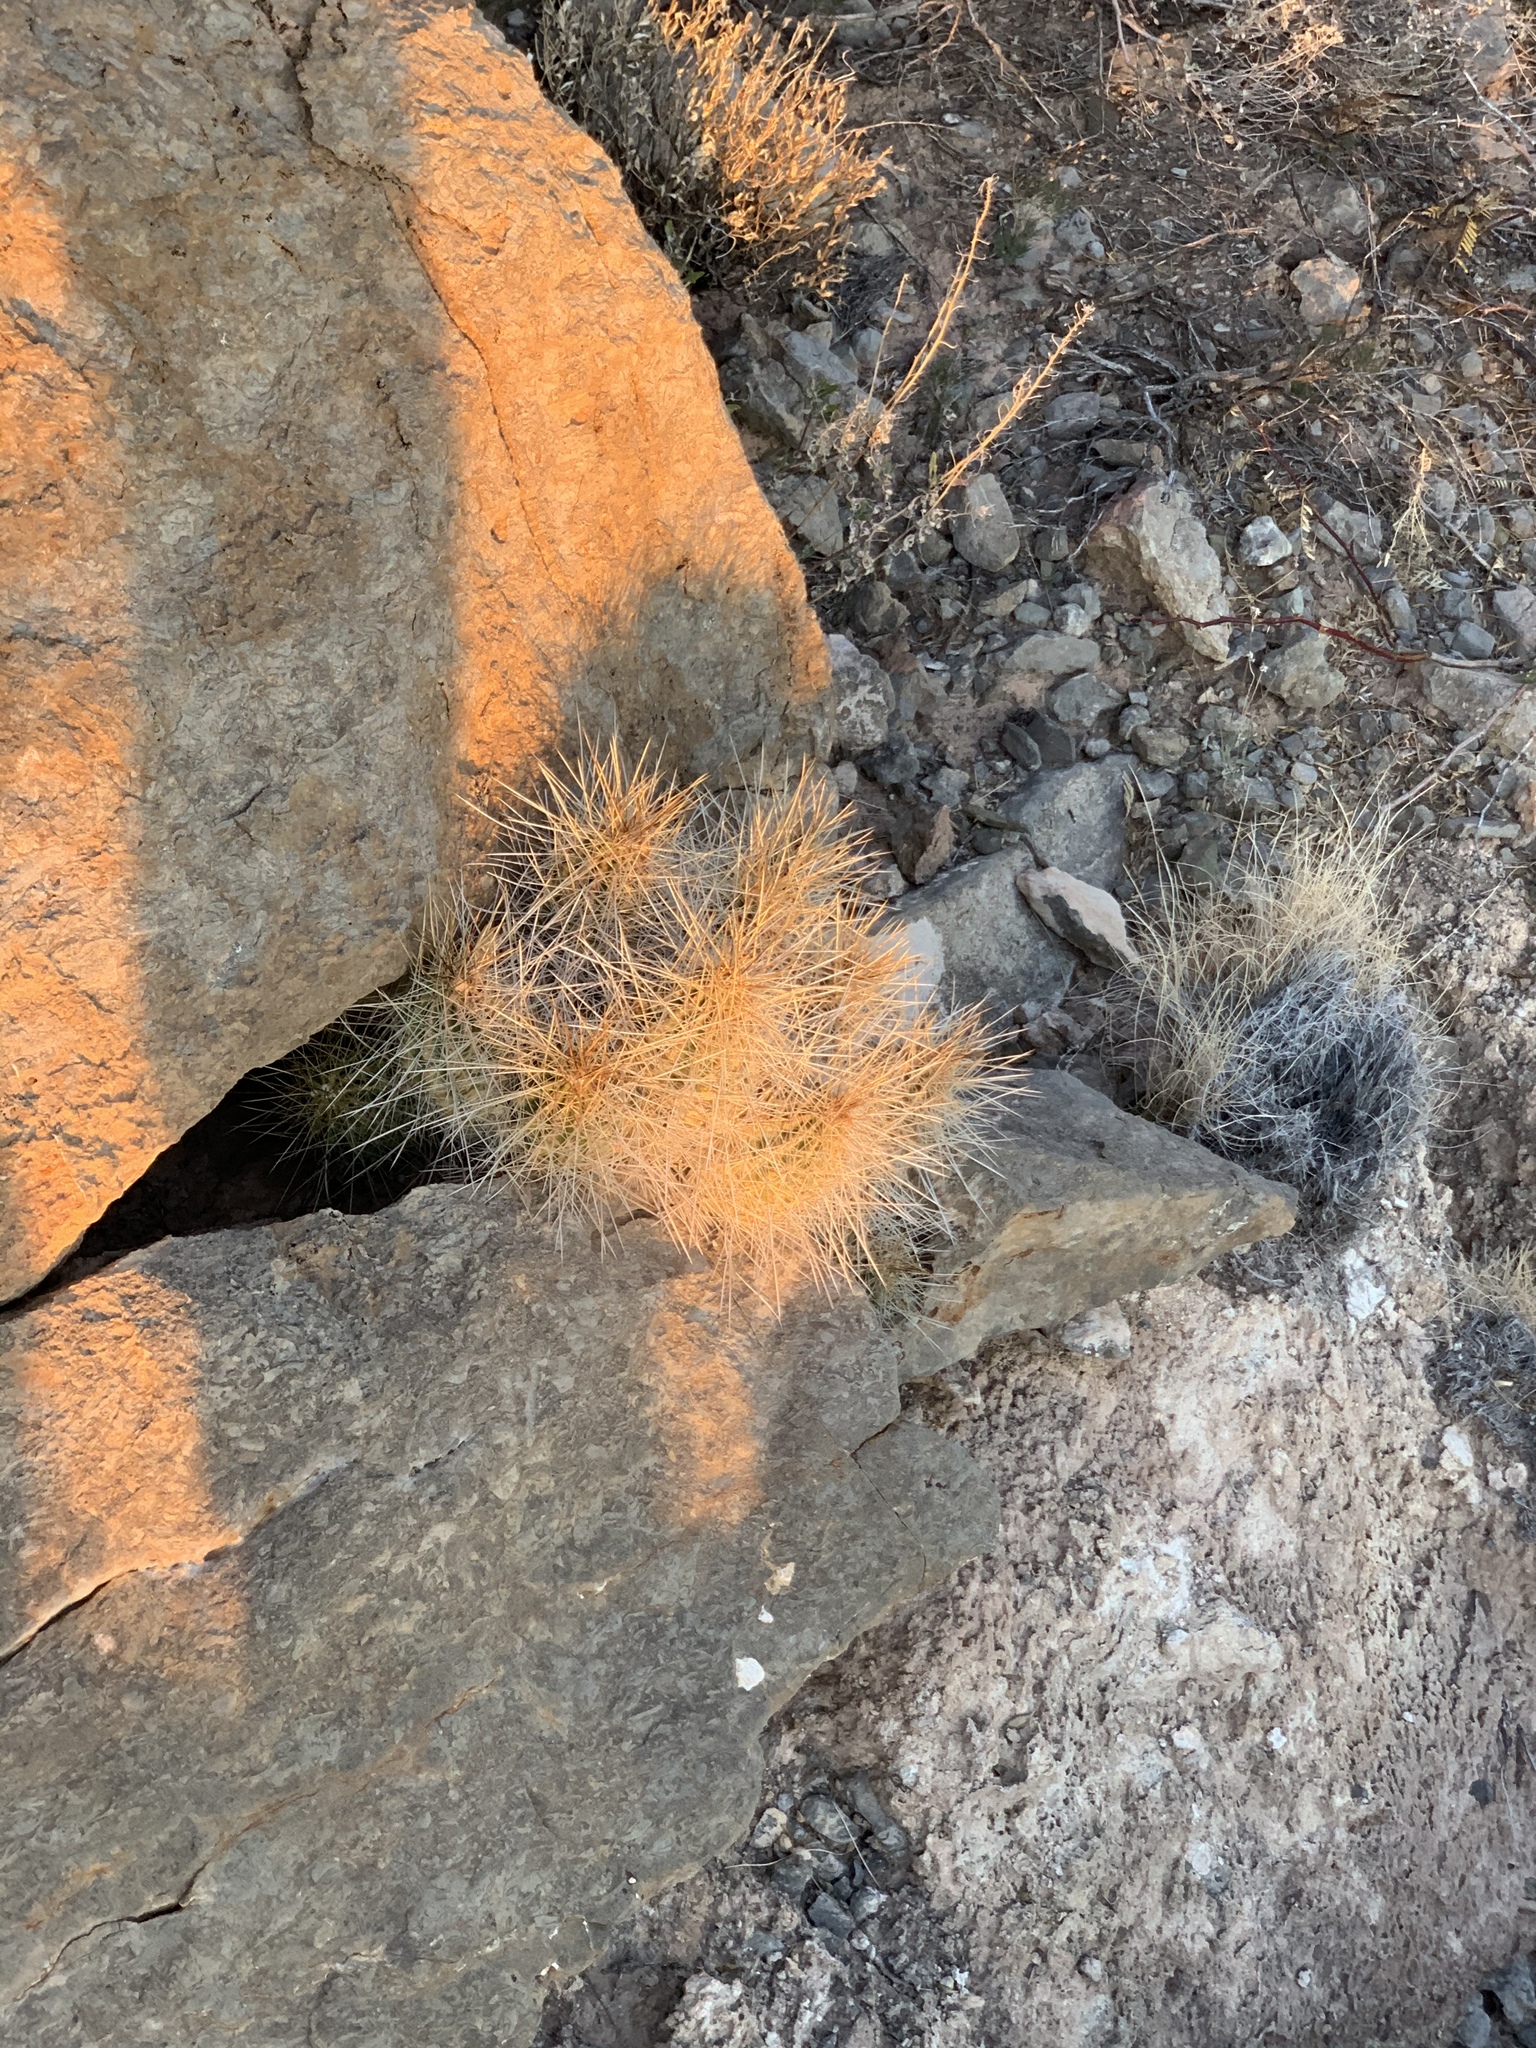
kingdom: Plantae
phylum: Tracheophyta
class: Magnoliopsida
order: Caryophyllales
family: Cactaceae
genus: Echinocereus
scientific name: Echinocereus stramineus
